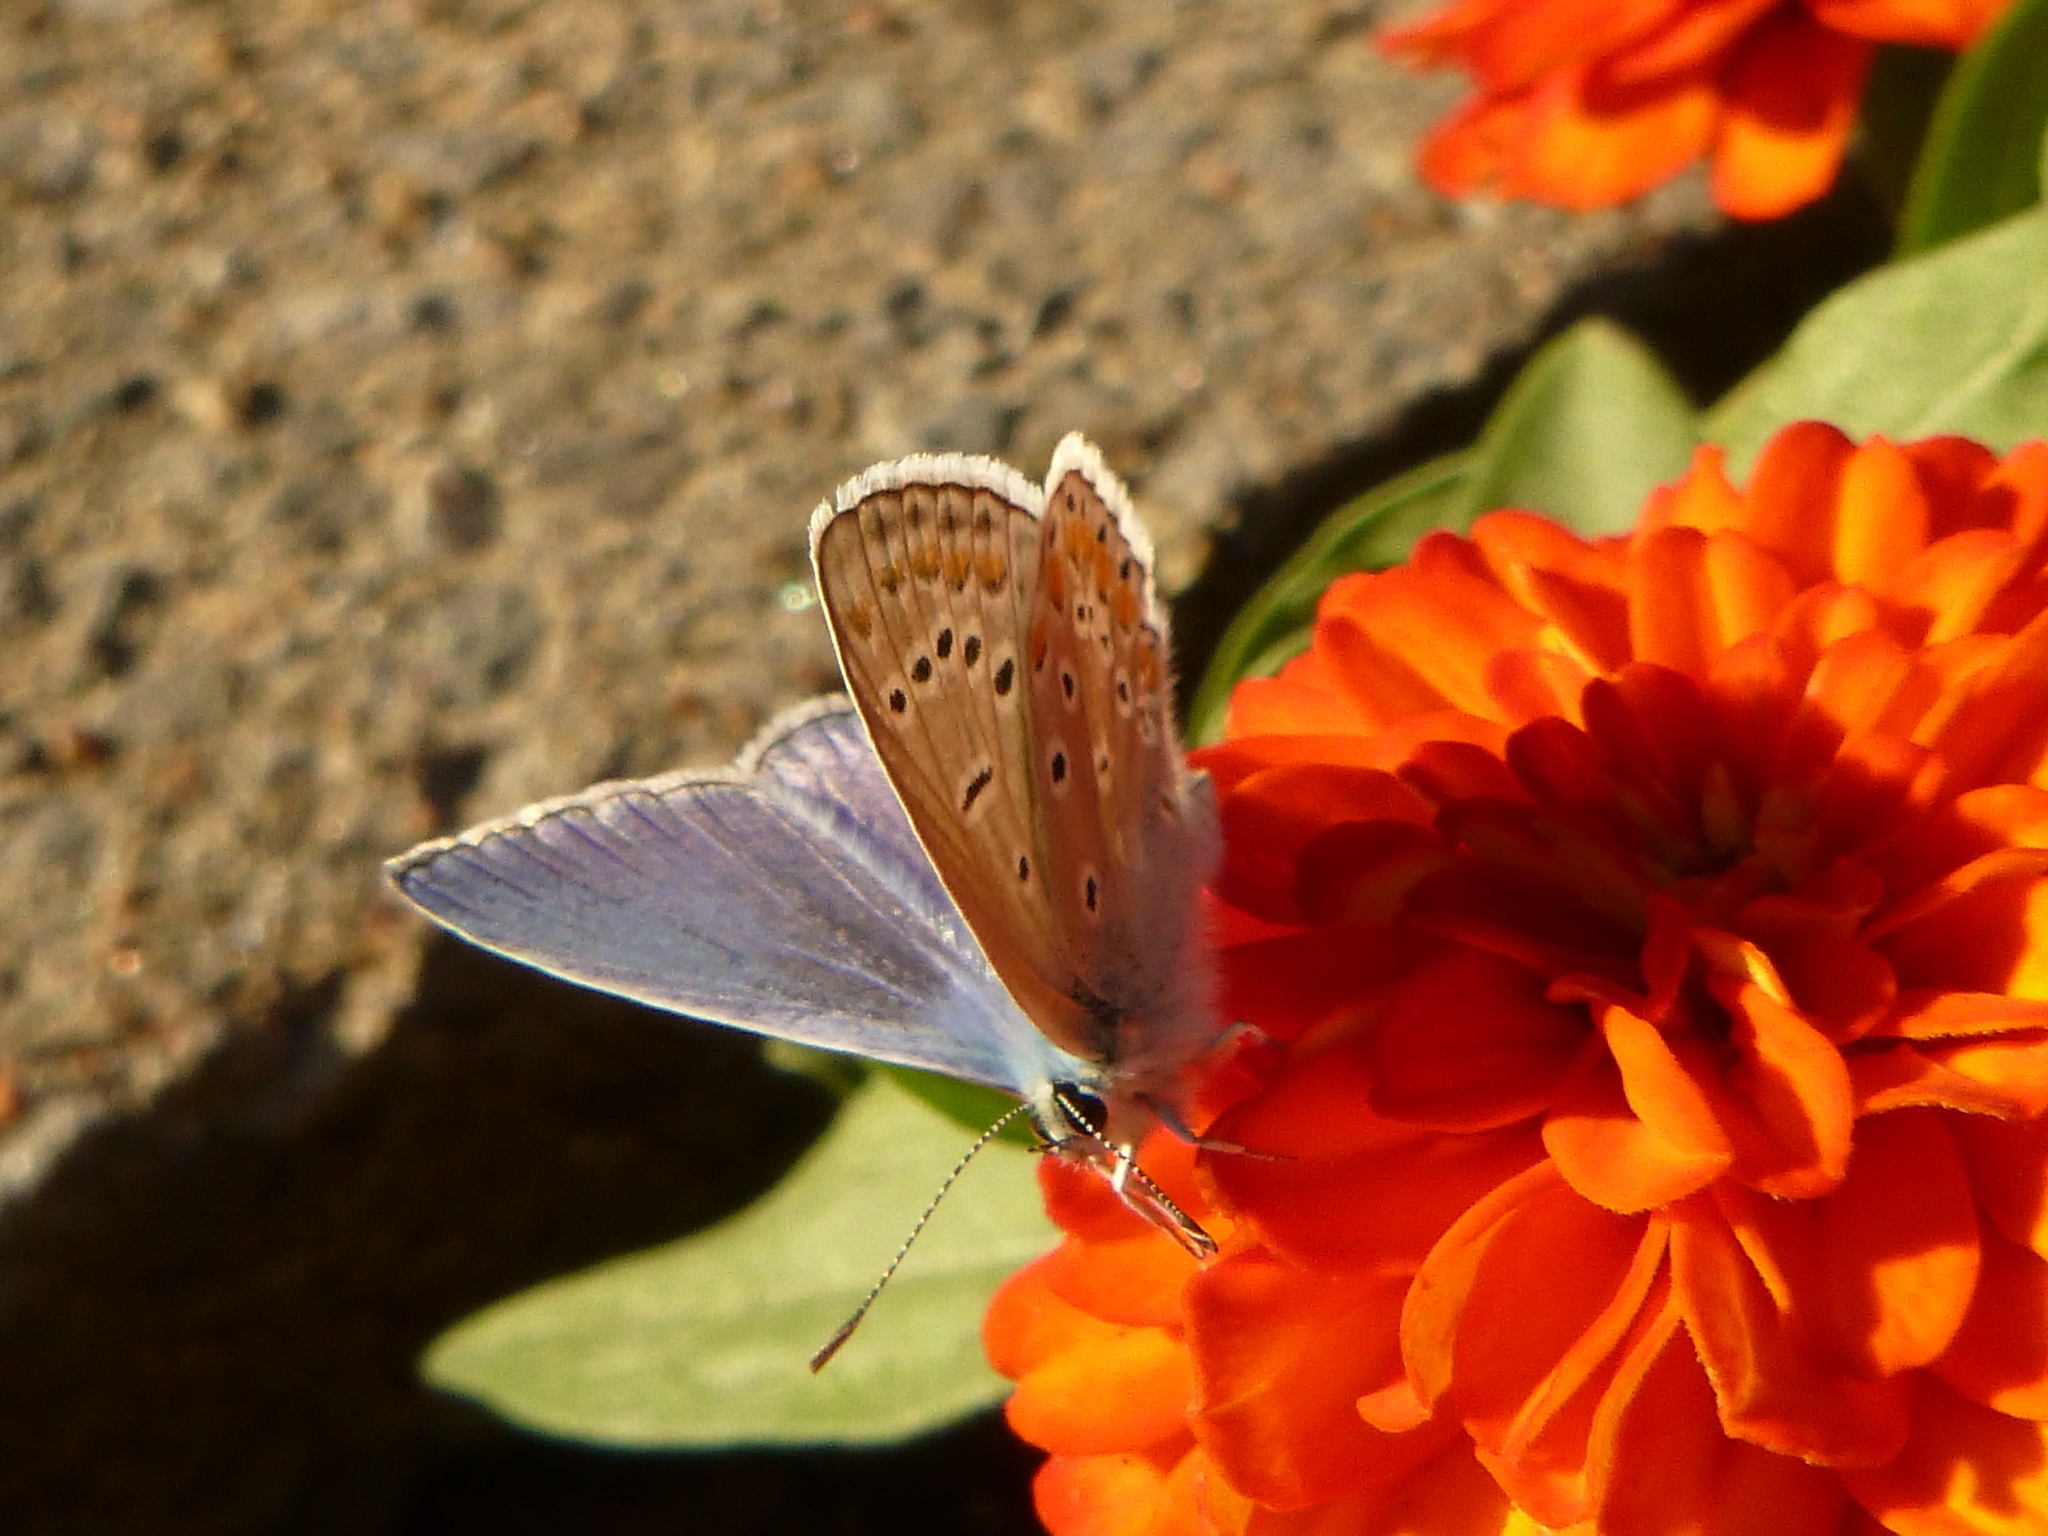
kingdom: Animalia
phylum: Arthropoda
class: Insecta
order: Lepidoptera
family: Lycaenidae
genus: Polyommatus
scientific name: Polyommatus icarus
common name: Common blue
